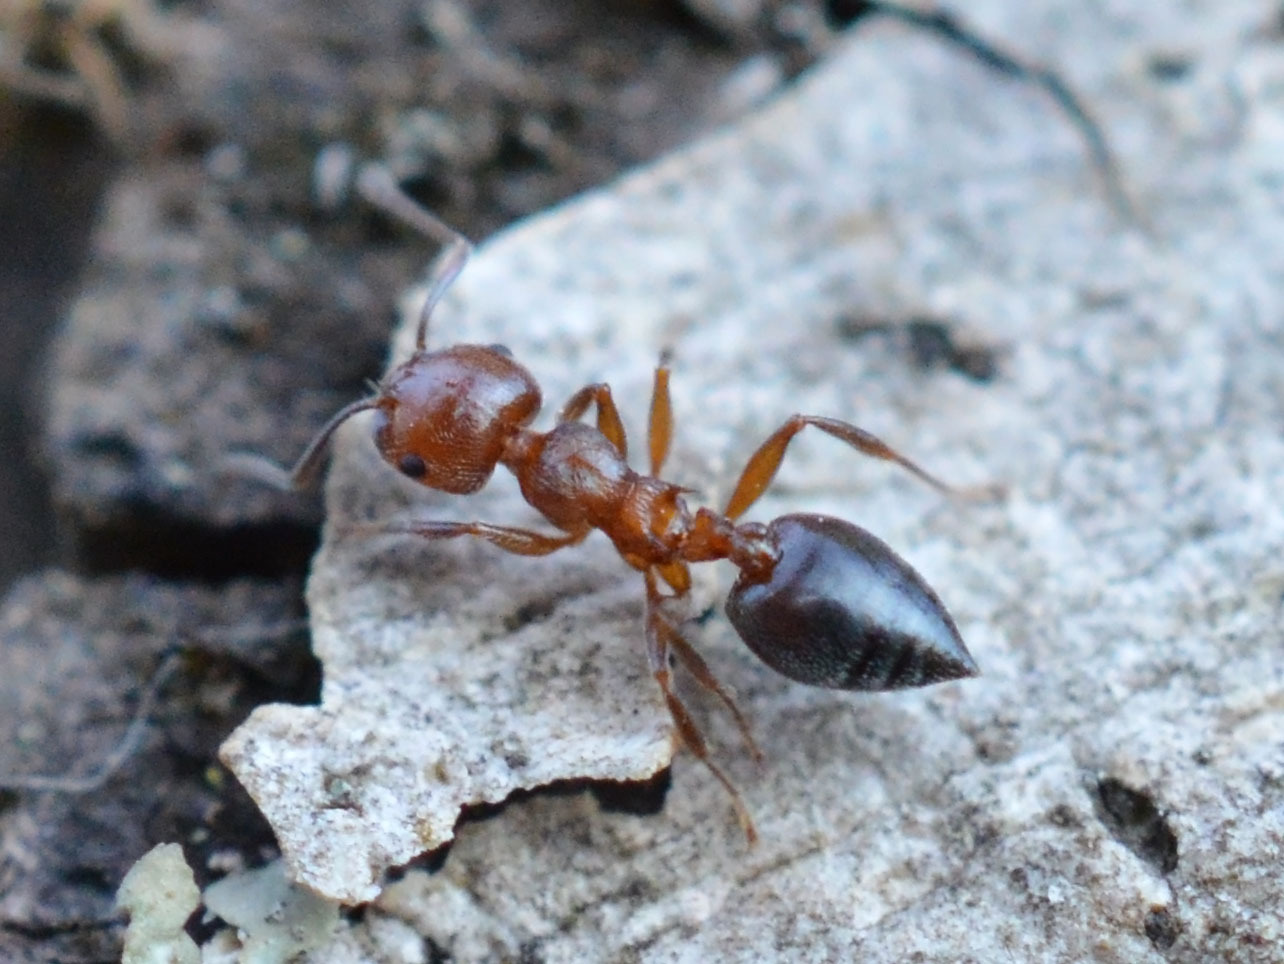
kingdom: Animalia
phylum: Arthropoda
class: Insecta
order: Hymenoptera
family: Formicidae
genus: Crematogaster
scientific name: Crematogaster schmidti
